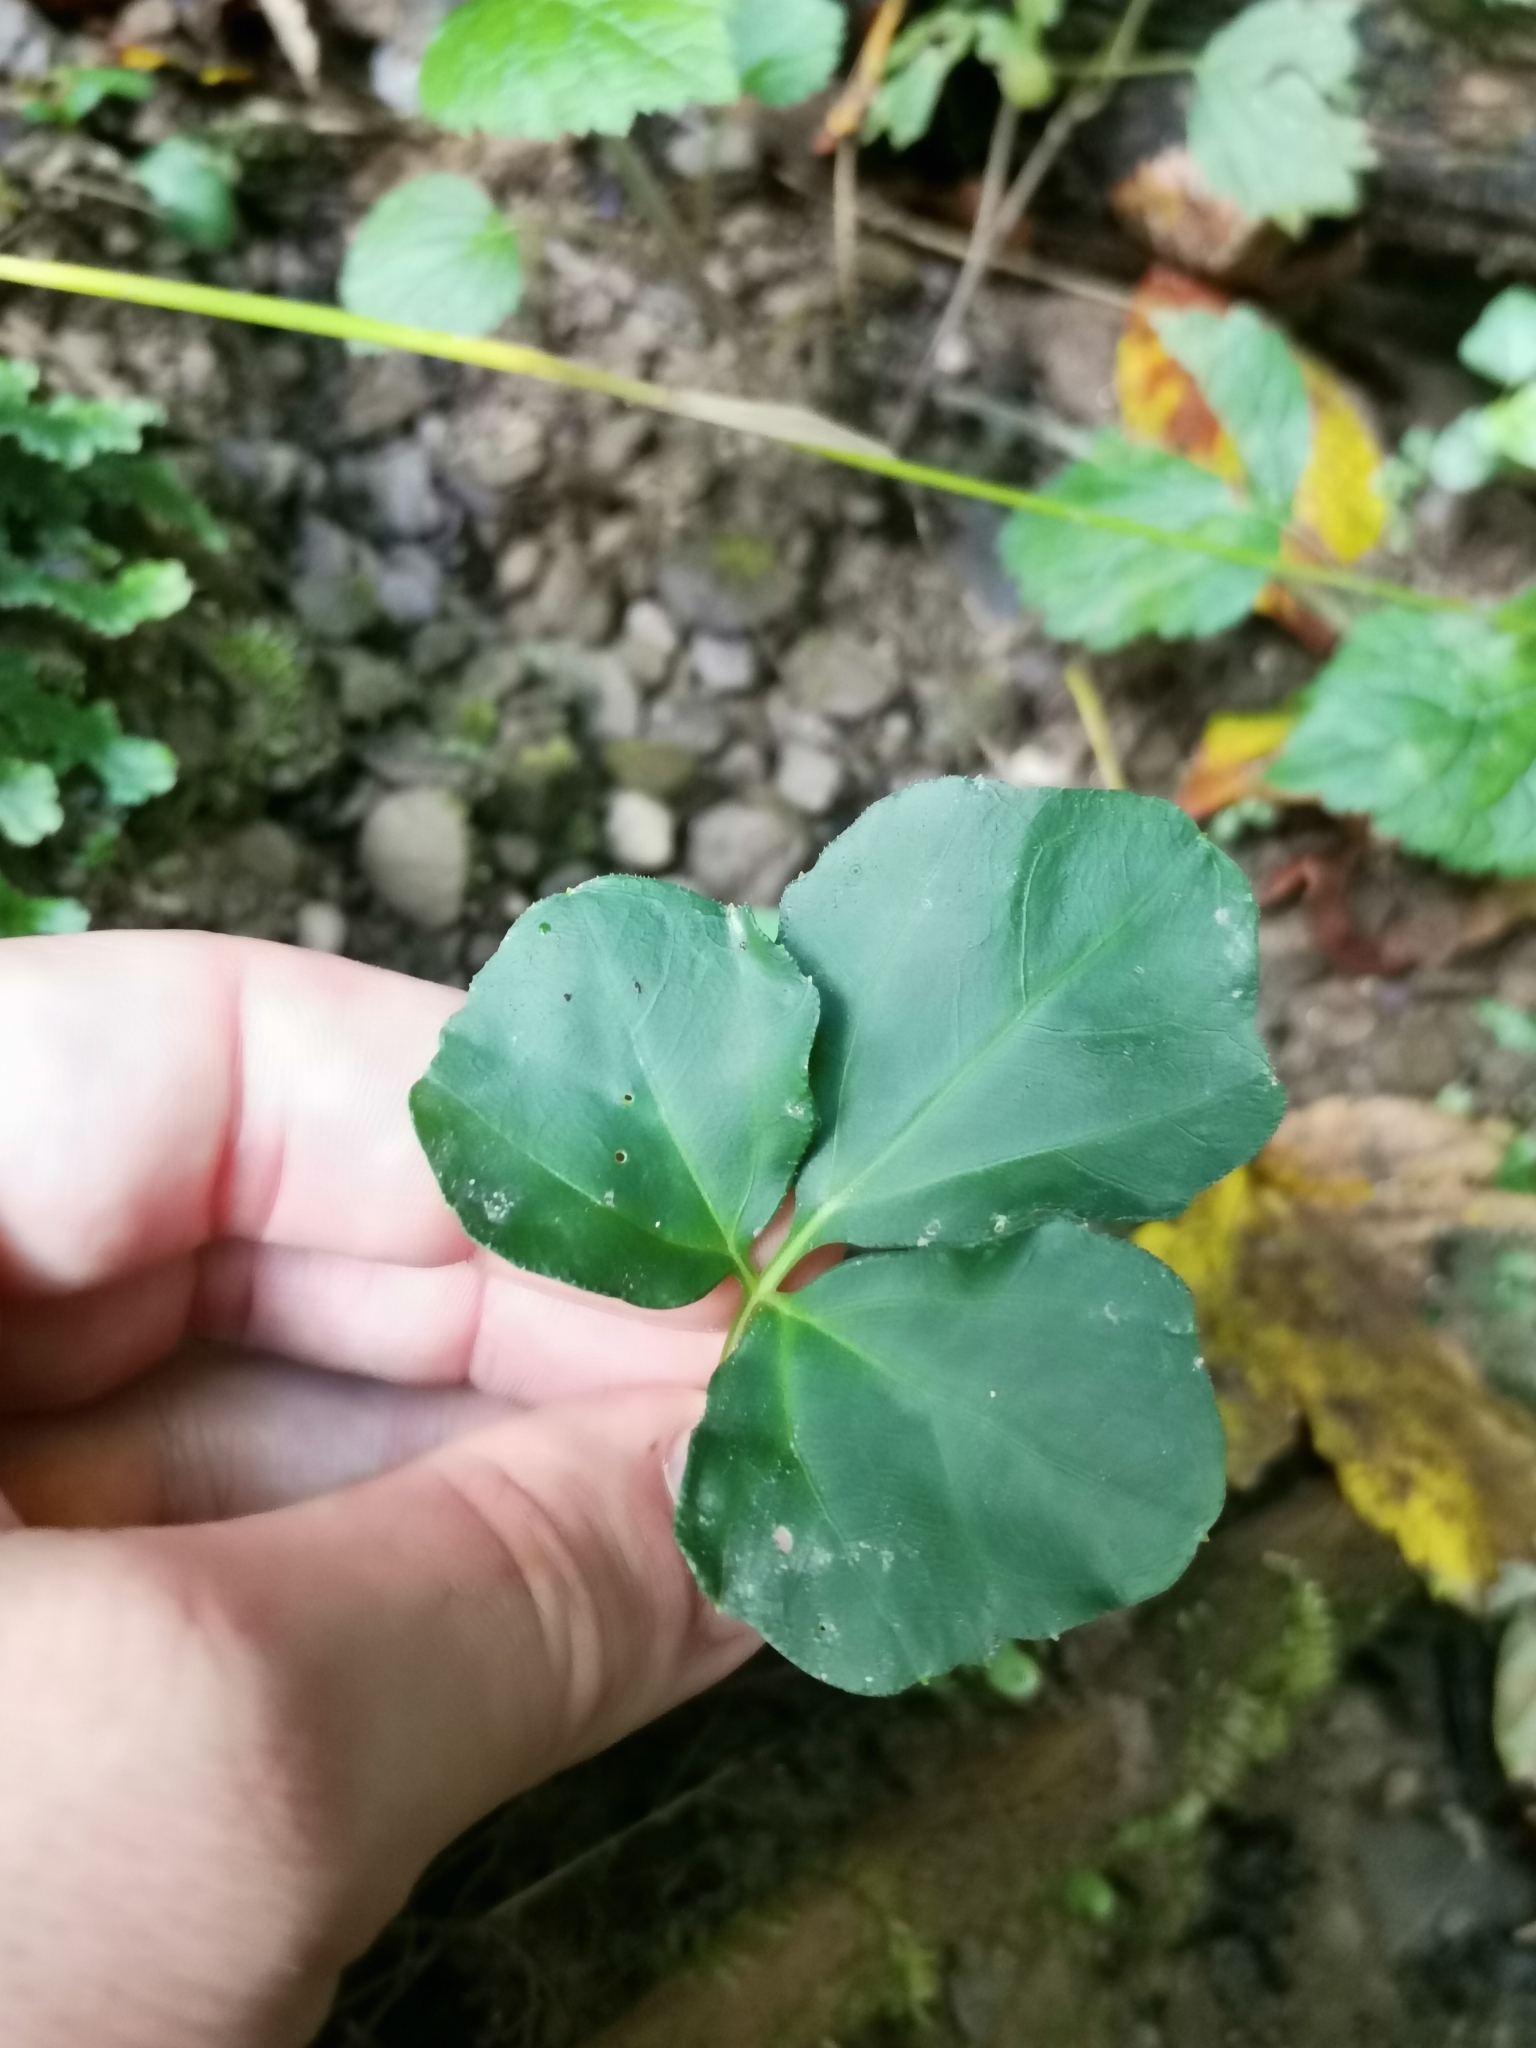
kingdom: Plantae
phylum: Tracheophyta
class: Magnoliopsida
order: Brassicales
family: Brassicaceae
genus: Cardamine
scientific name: Cardamine trifolia
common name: Trefoil cress
